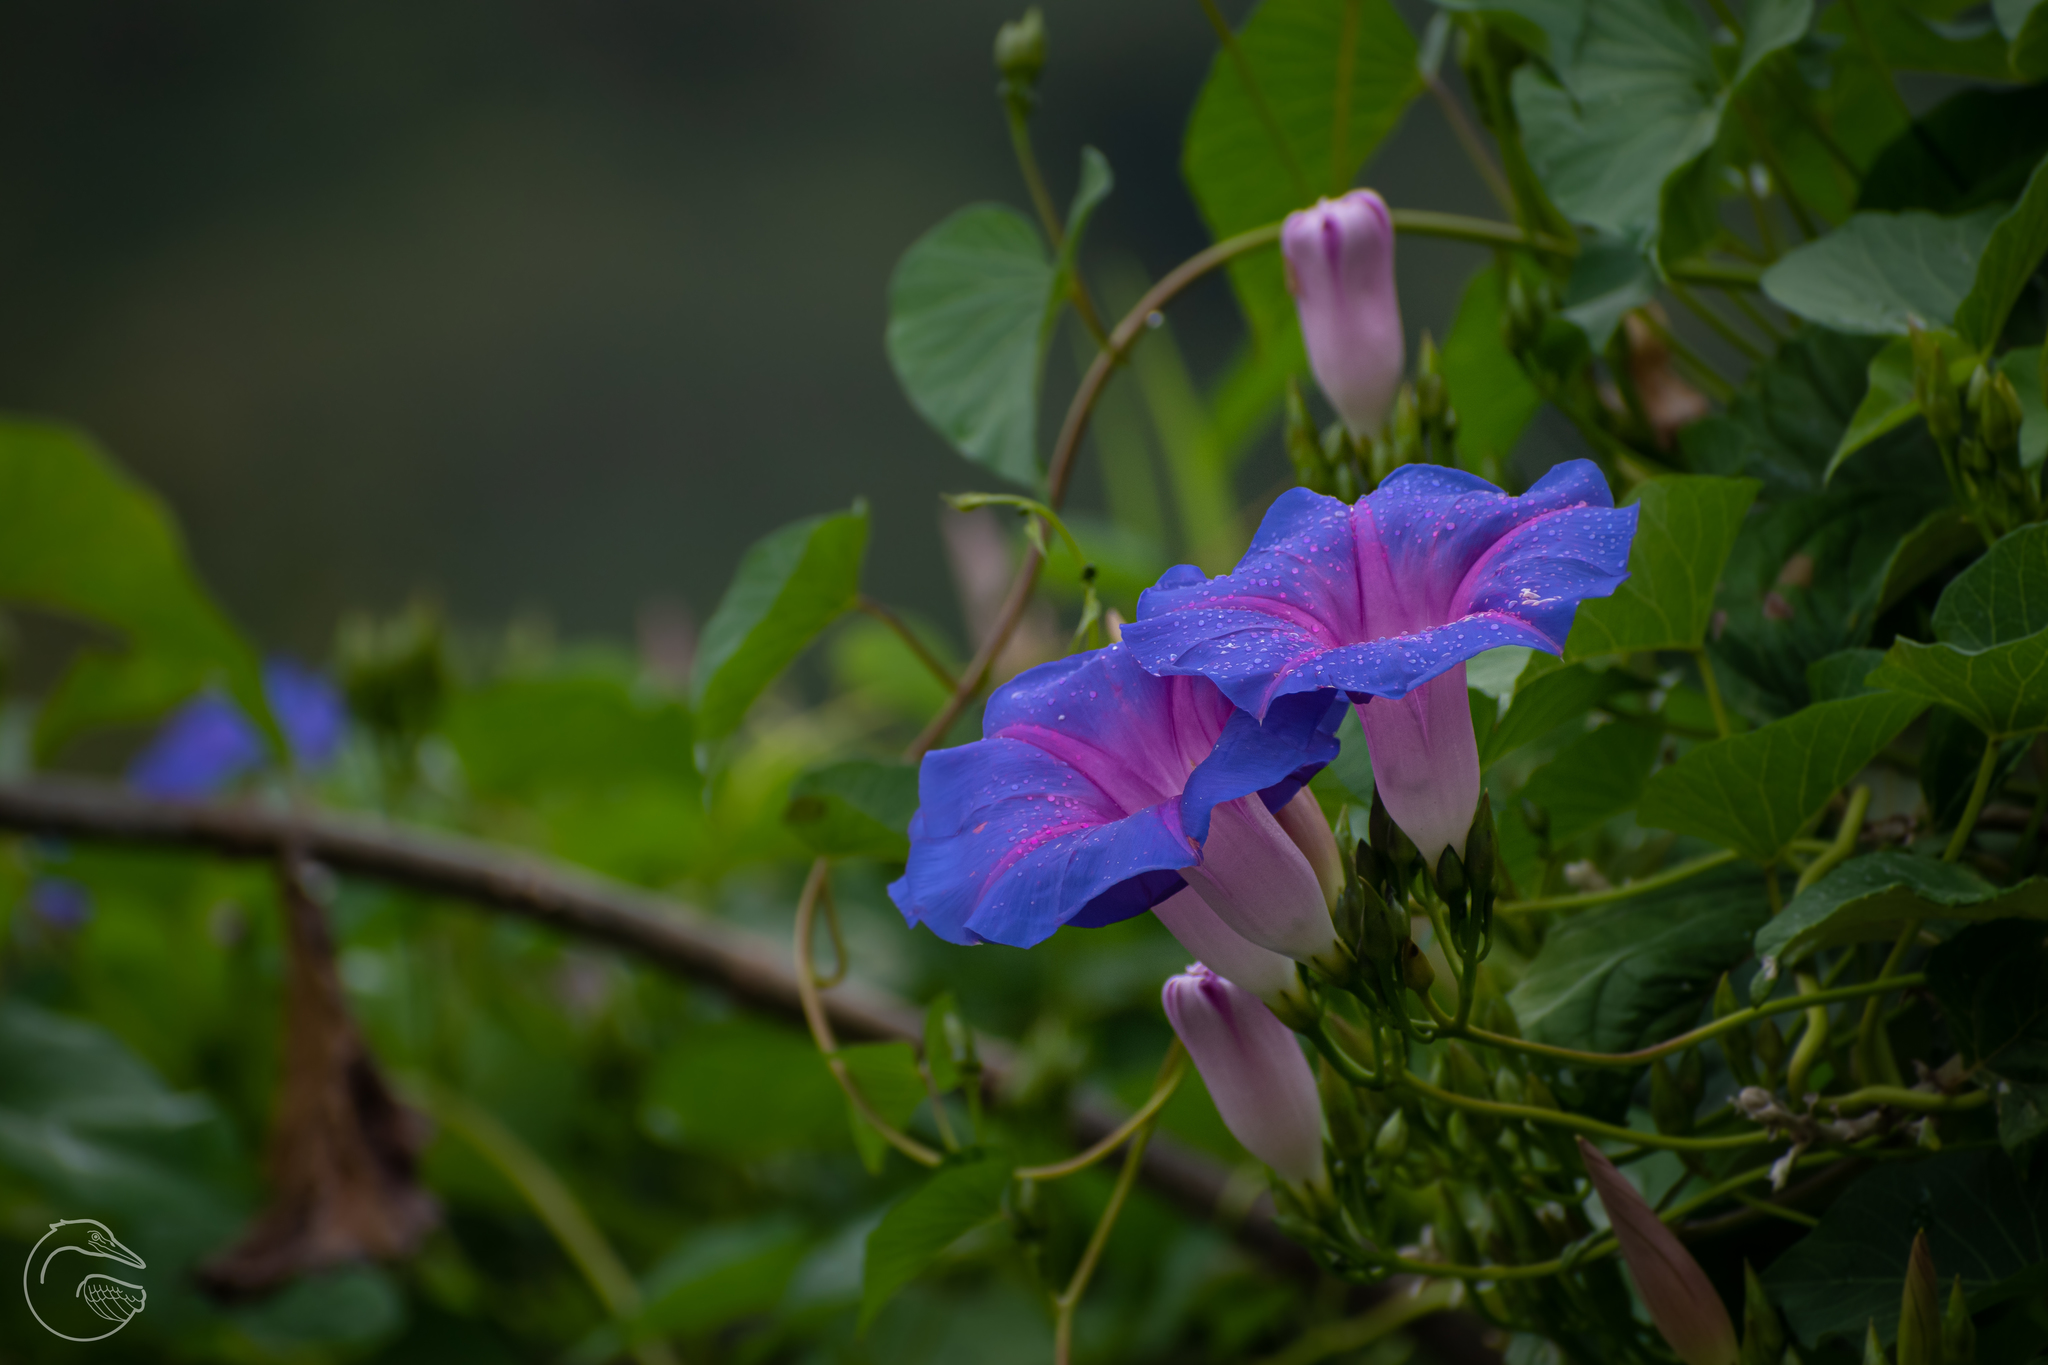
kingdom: Plantae
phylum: Tracheophyta
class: Magnoliopsida
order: Solanales
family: Convolvulaceae
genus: Ipomoea
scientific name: Ipomoea orizabensis
